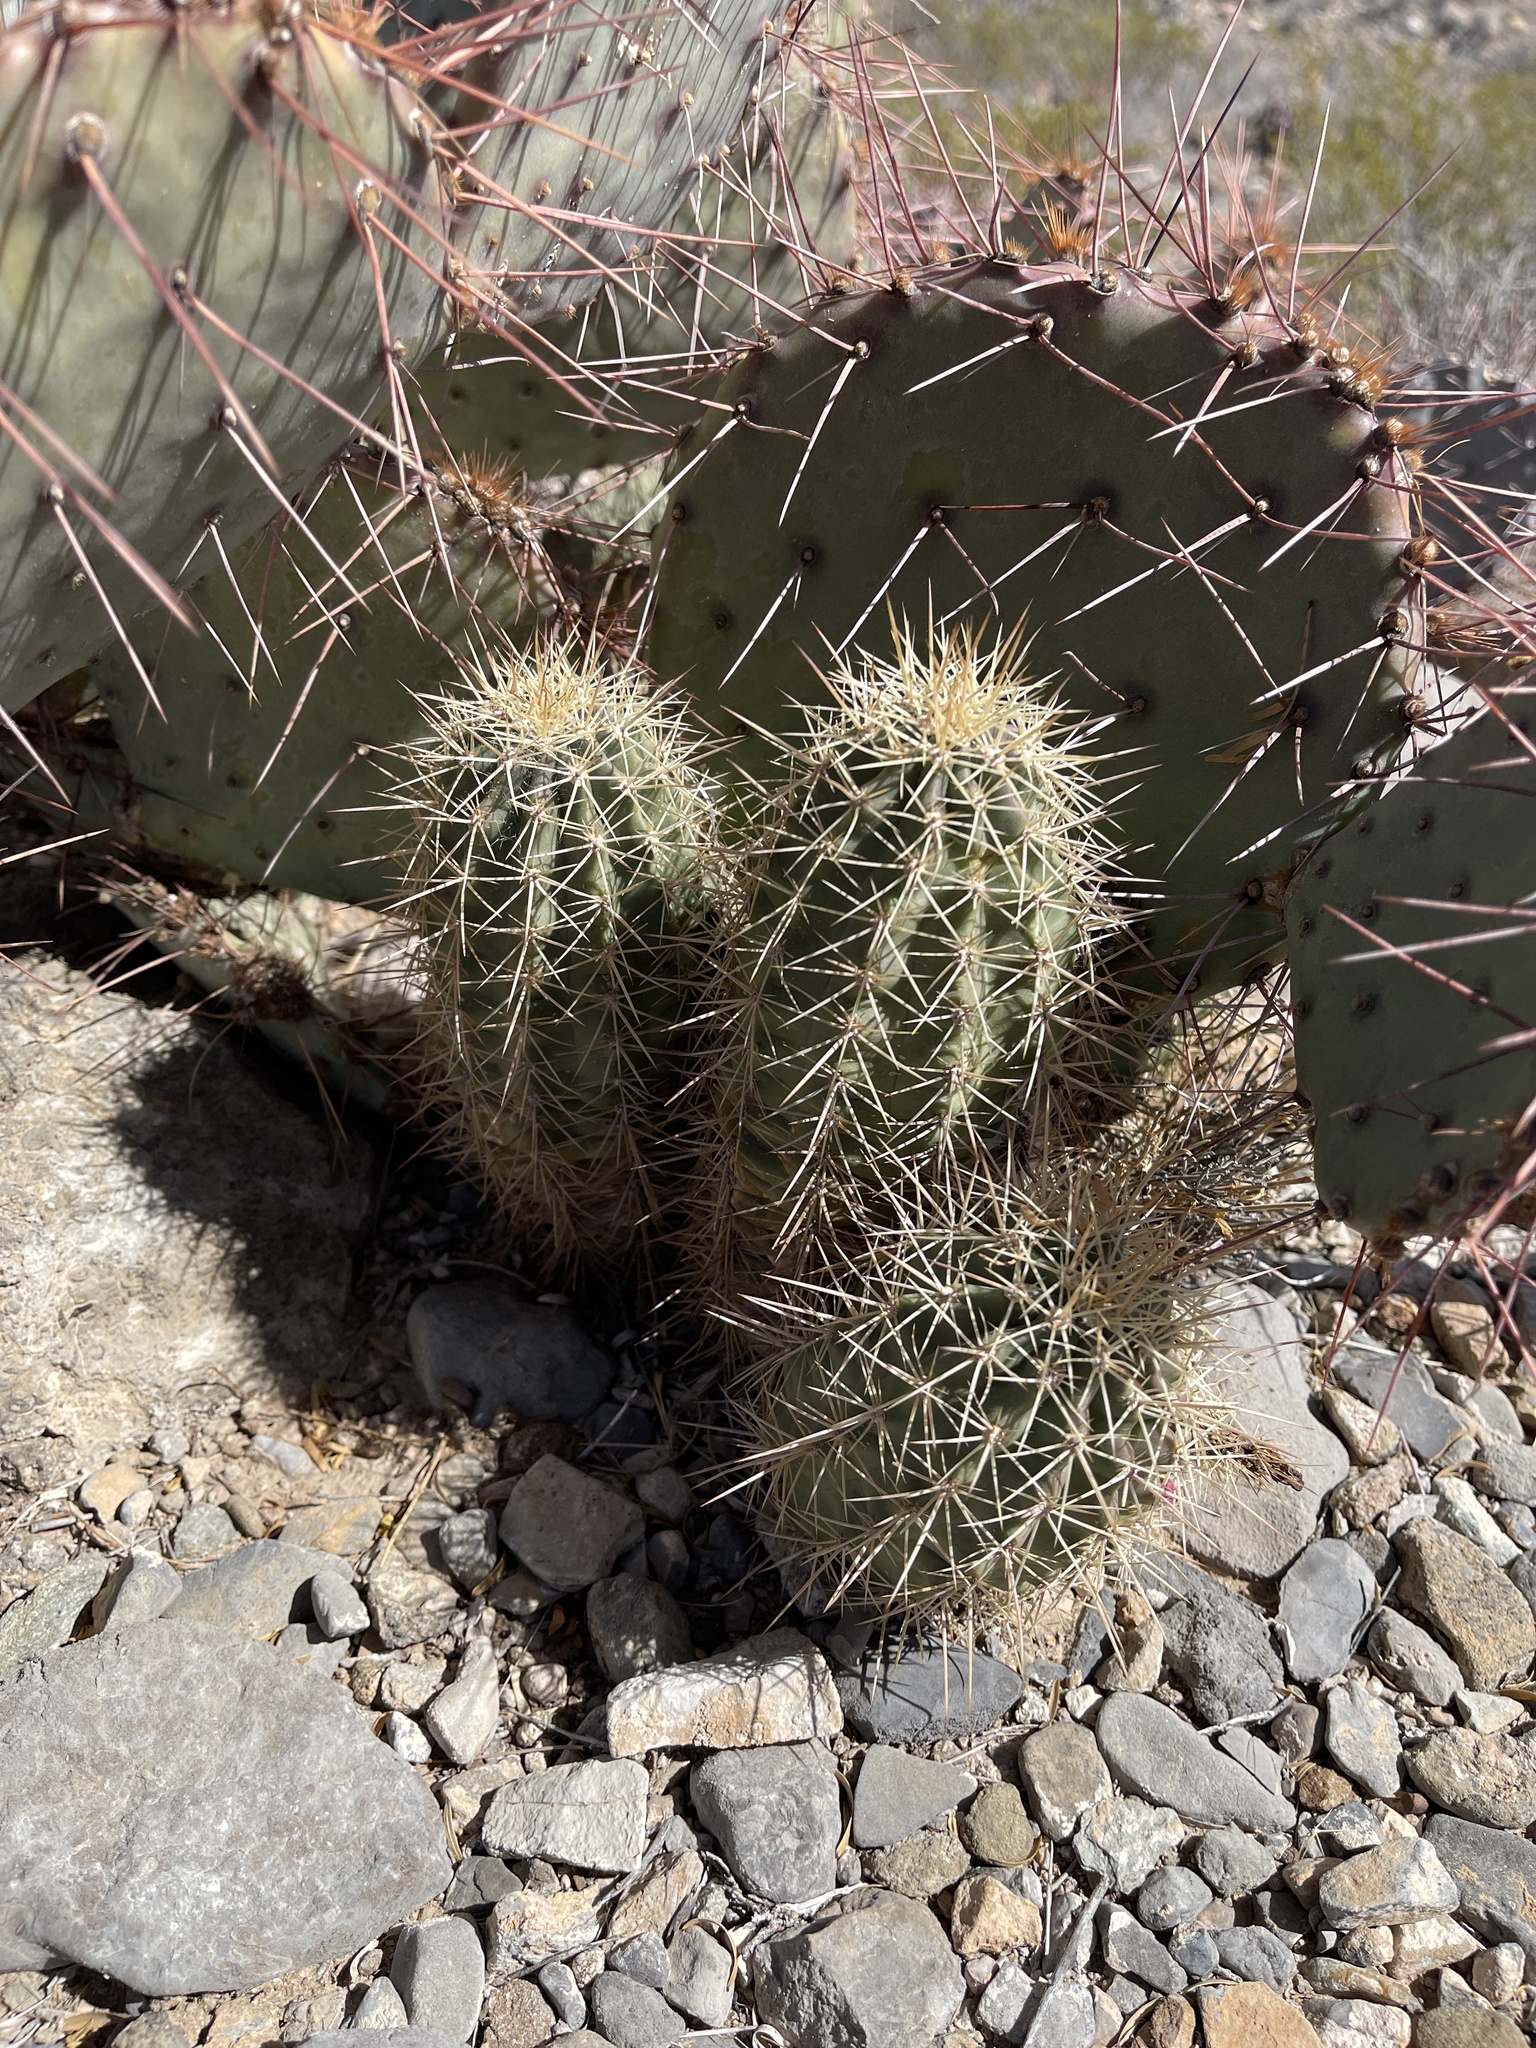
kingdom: Plantae
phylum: Tracheophyta
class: Magnoliopsida
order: Caryophyllales
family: Cactaceae
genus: Echinocereus
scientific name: Echinocereus coccineus
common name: Scarlet hedgehog cactus
